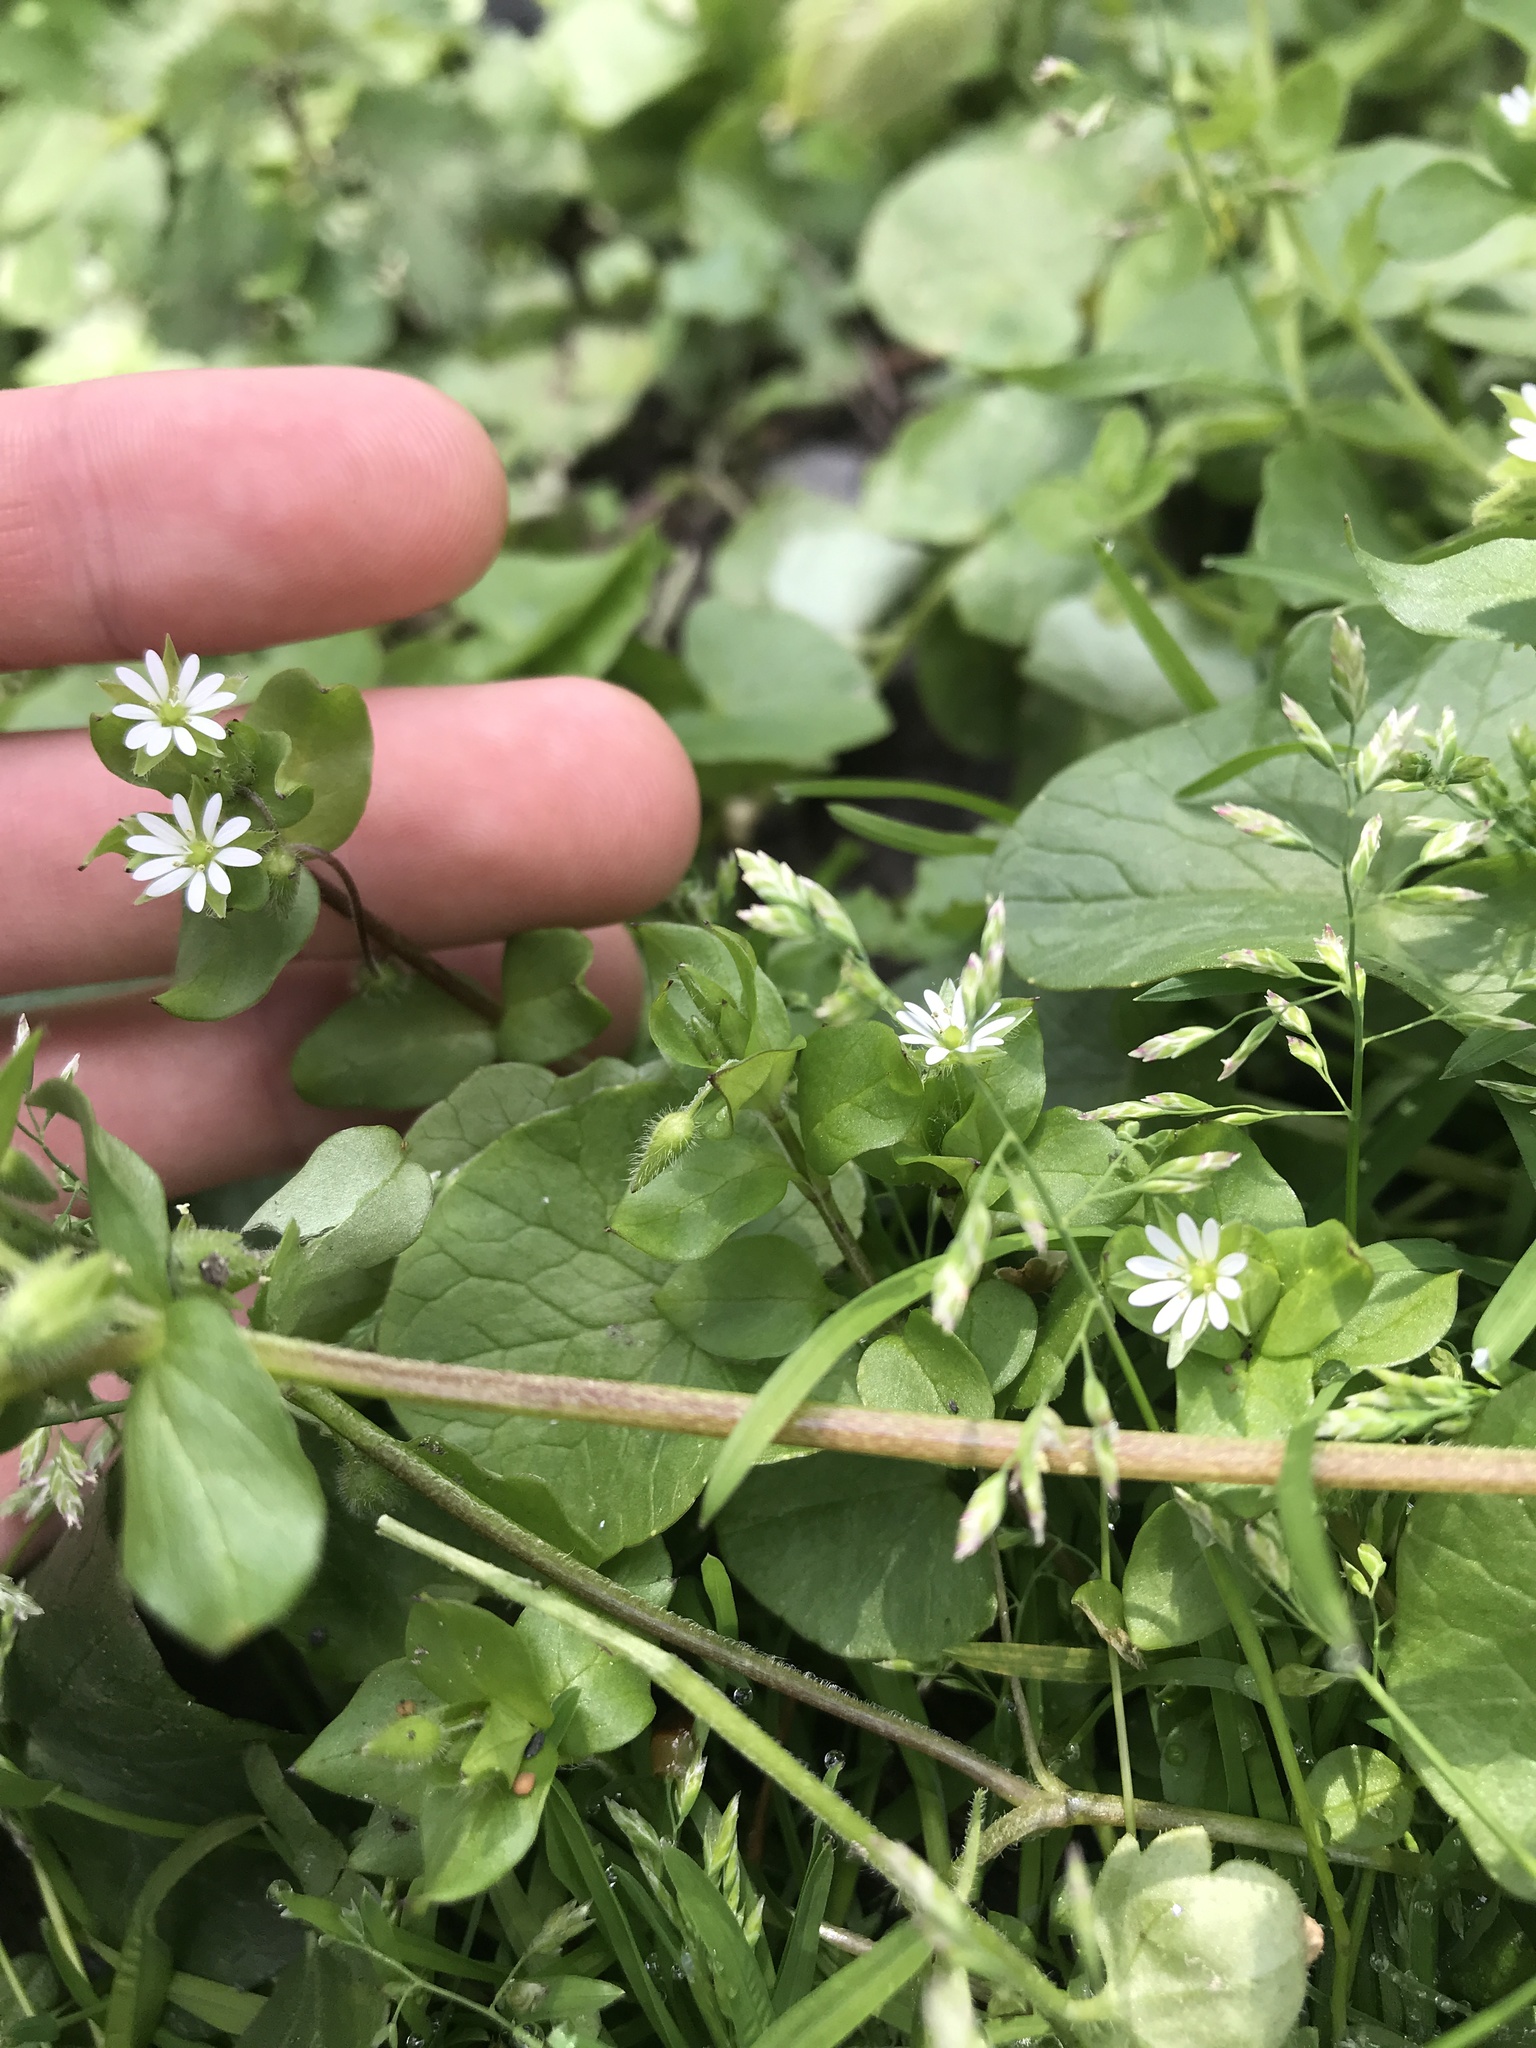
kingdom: Plantae
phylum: Tracheophyta
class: Magnoliopsida
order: Caryophyllales
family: Caryophyllaceae
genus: Stellaria
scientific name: Stellaria media
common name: Common chickweed
